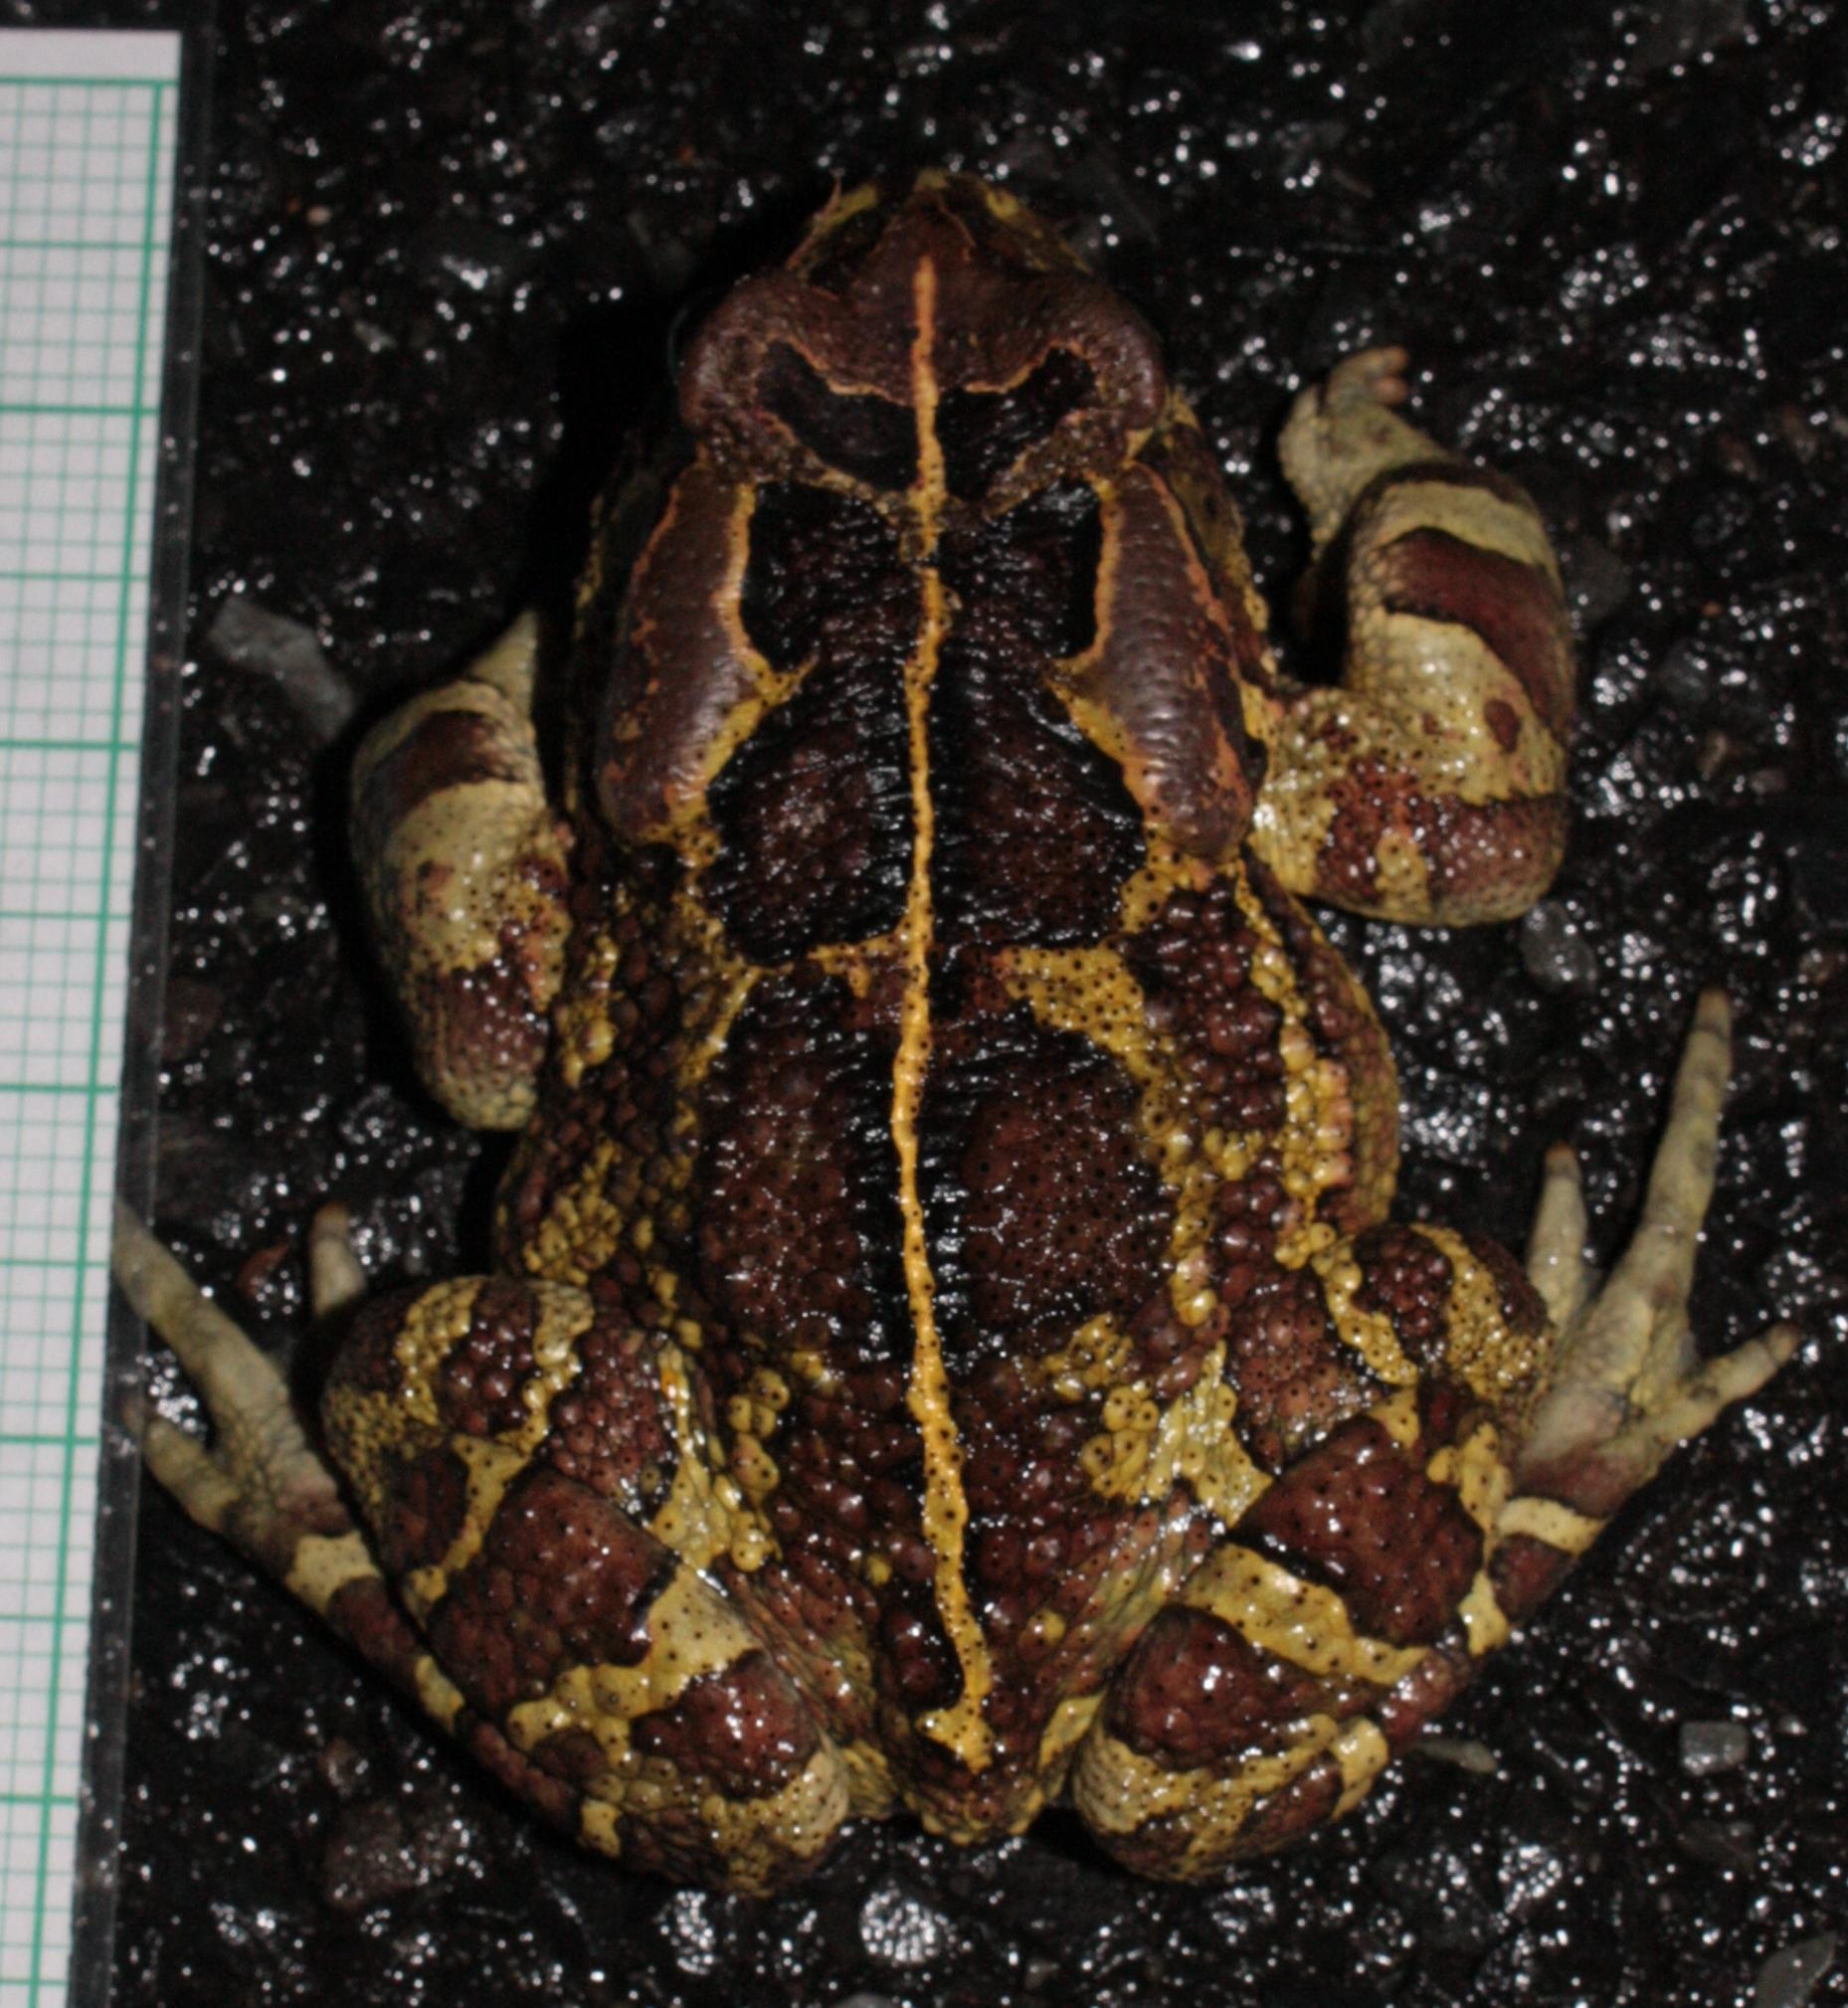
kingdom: Animalia
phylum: Chordata
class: Amphibia
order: Anura
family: Bufonidae
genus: Sclerophrys
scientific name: Sclerophrys pantherina
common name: Panther toad
